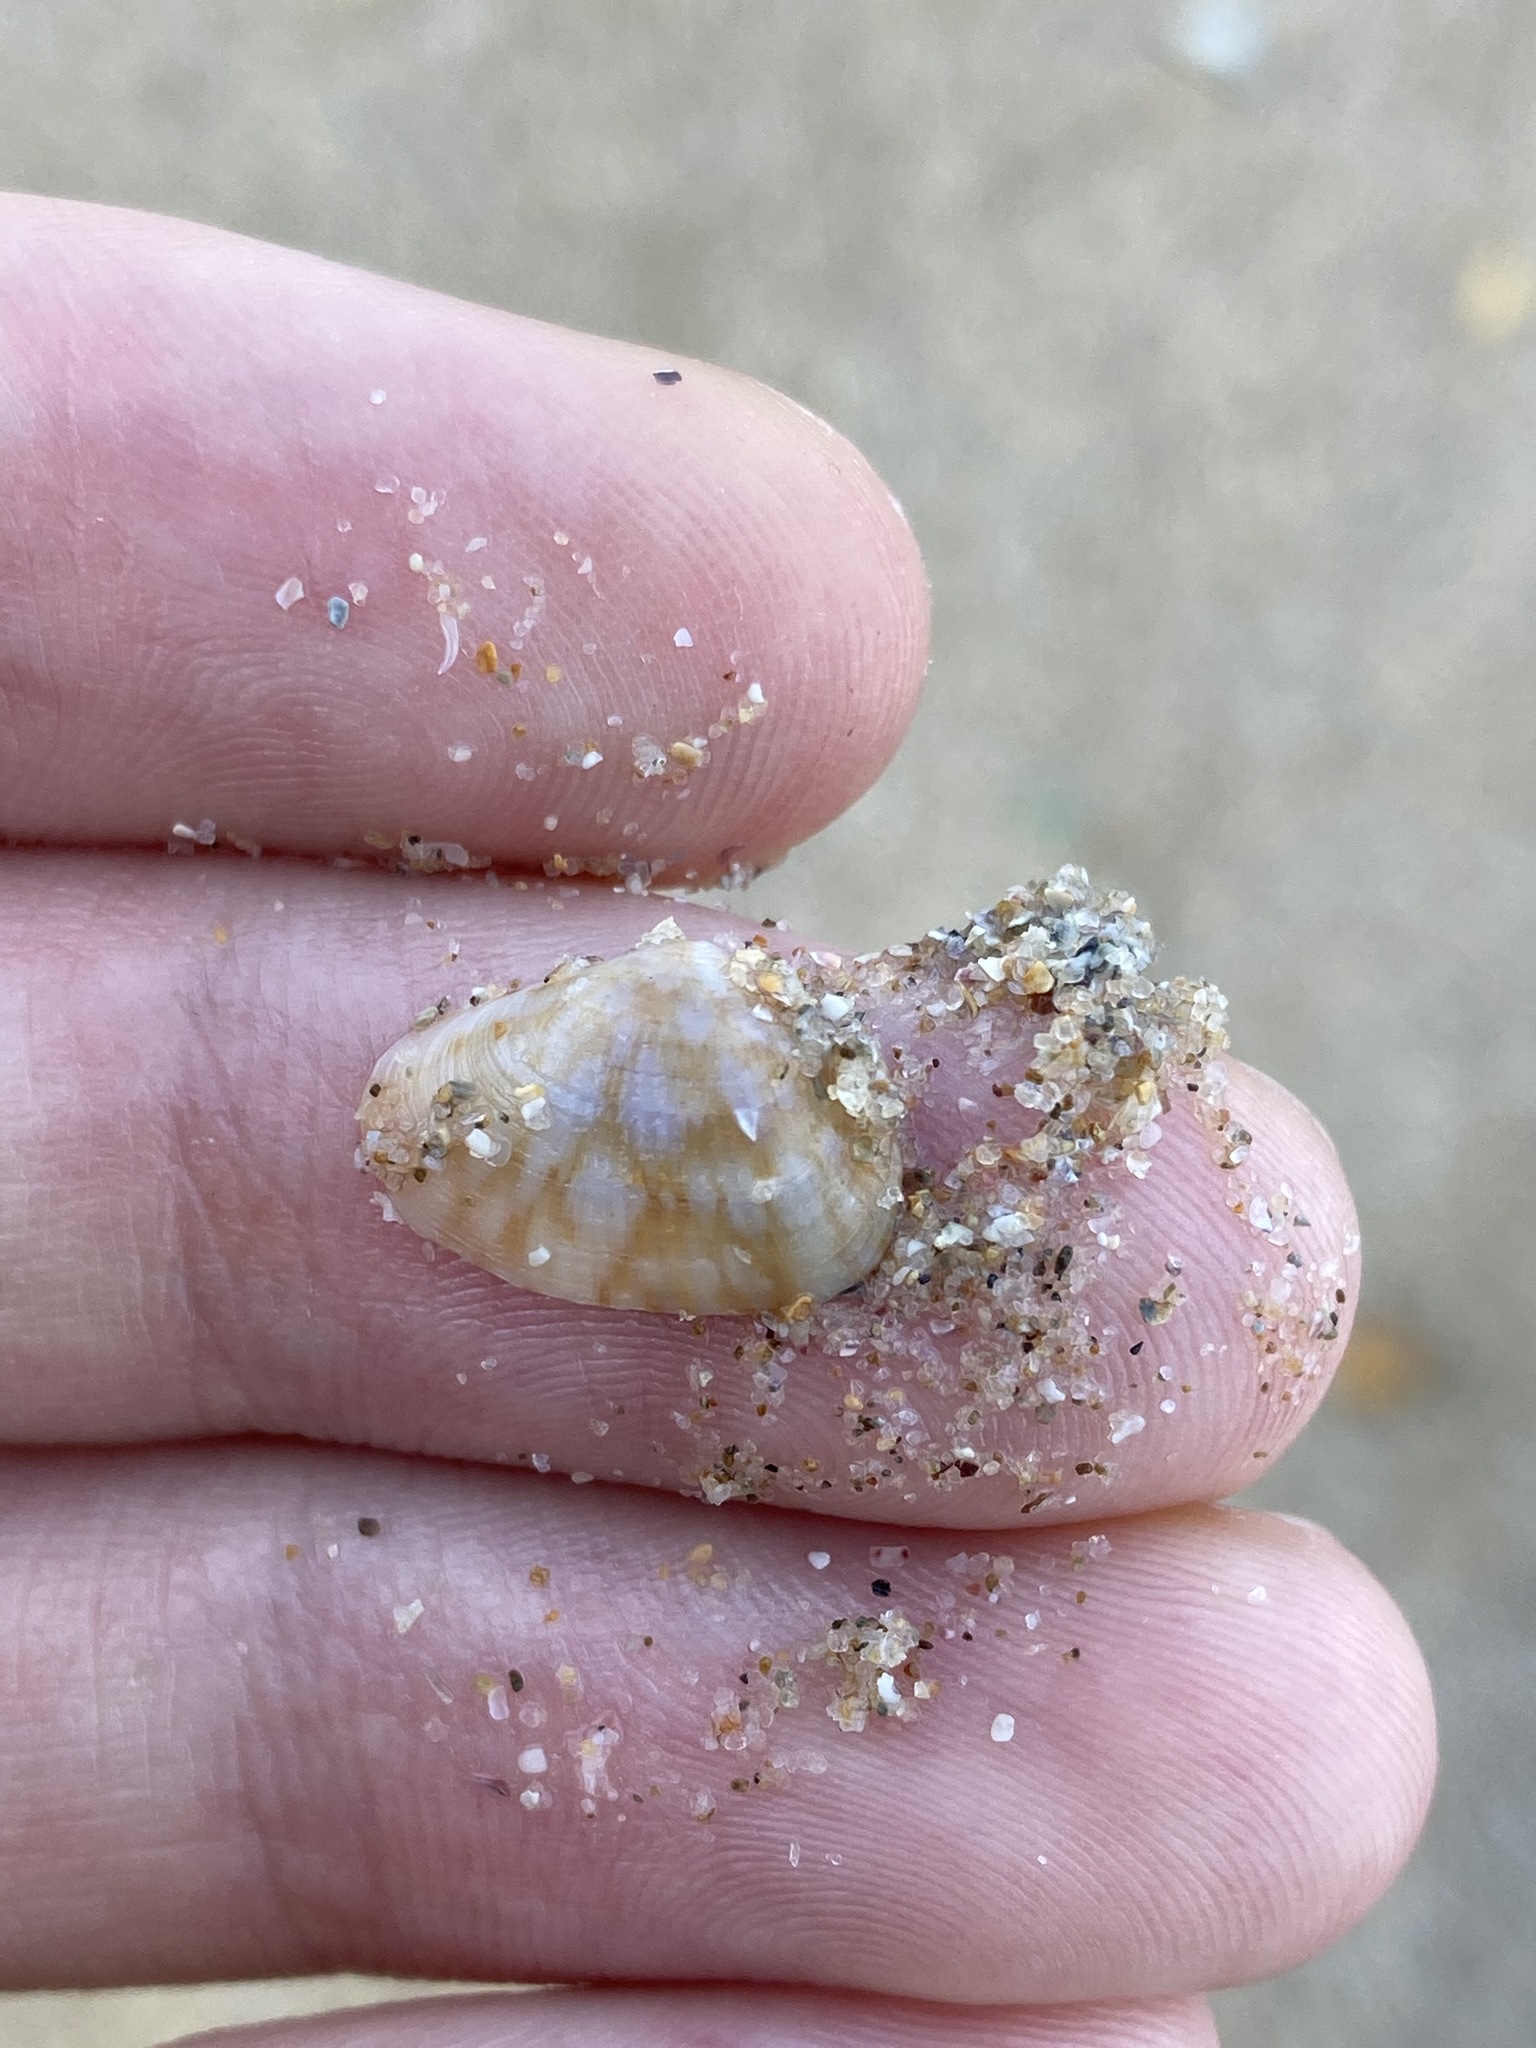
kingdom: Animalia
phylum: Mollusca
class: Bivalvia
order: Venerida
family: Hemidonacidae
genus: Hemidonax
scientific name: Hemidonax dactylus
